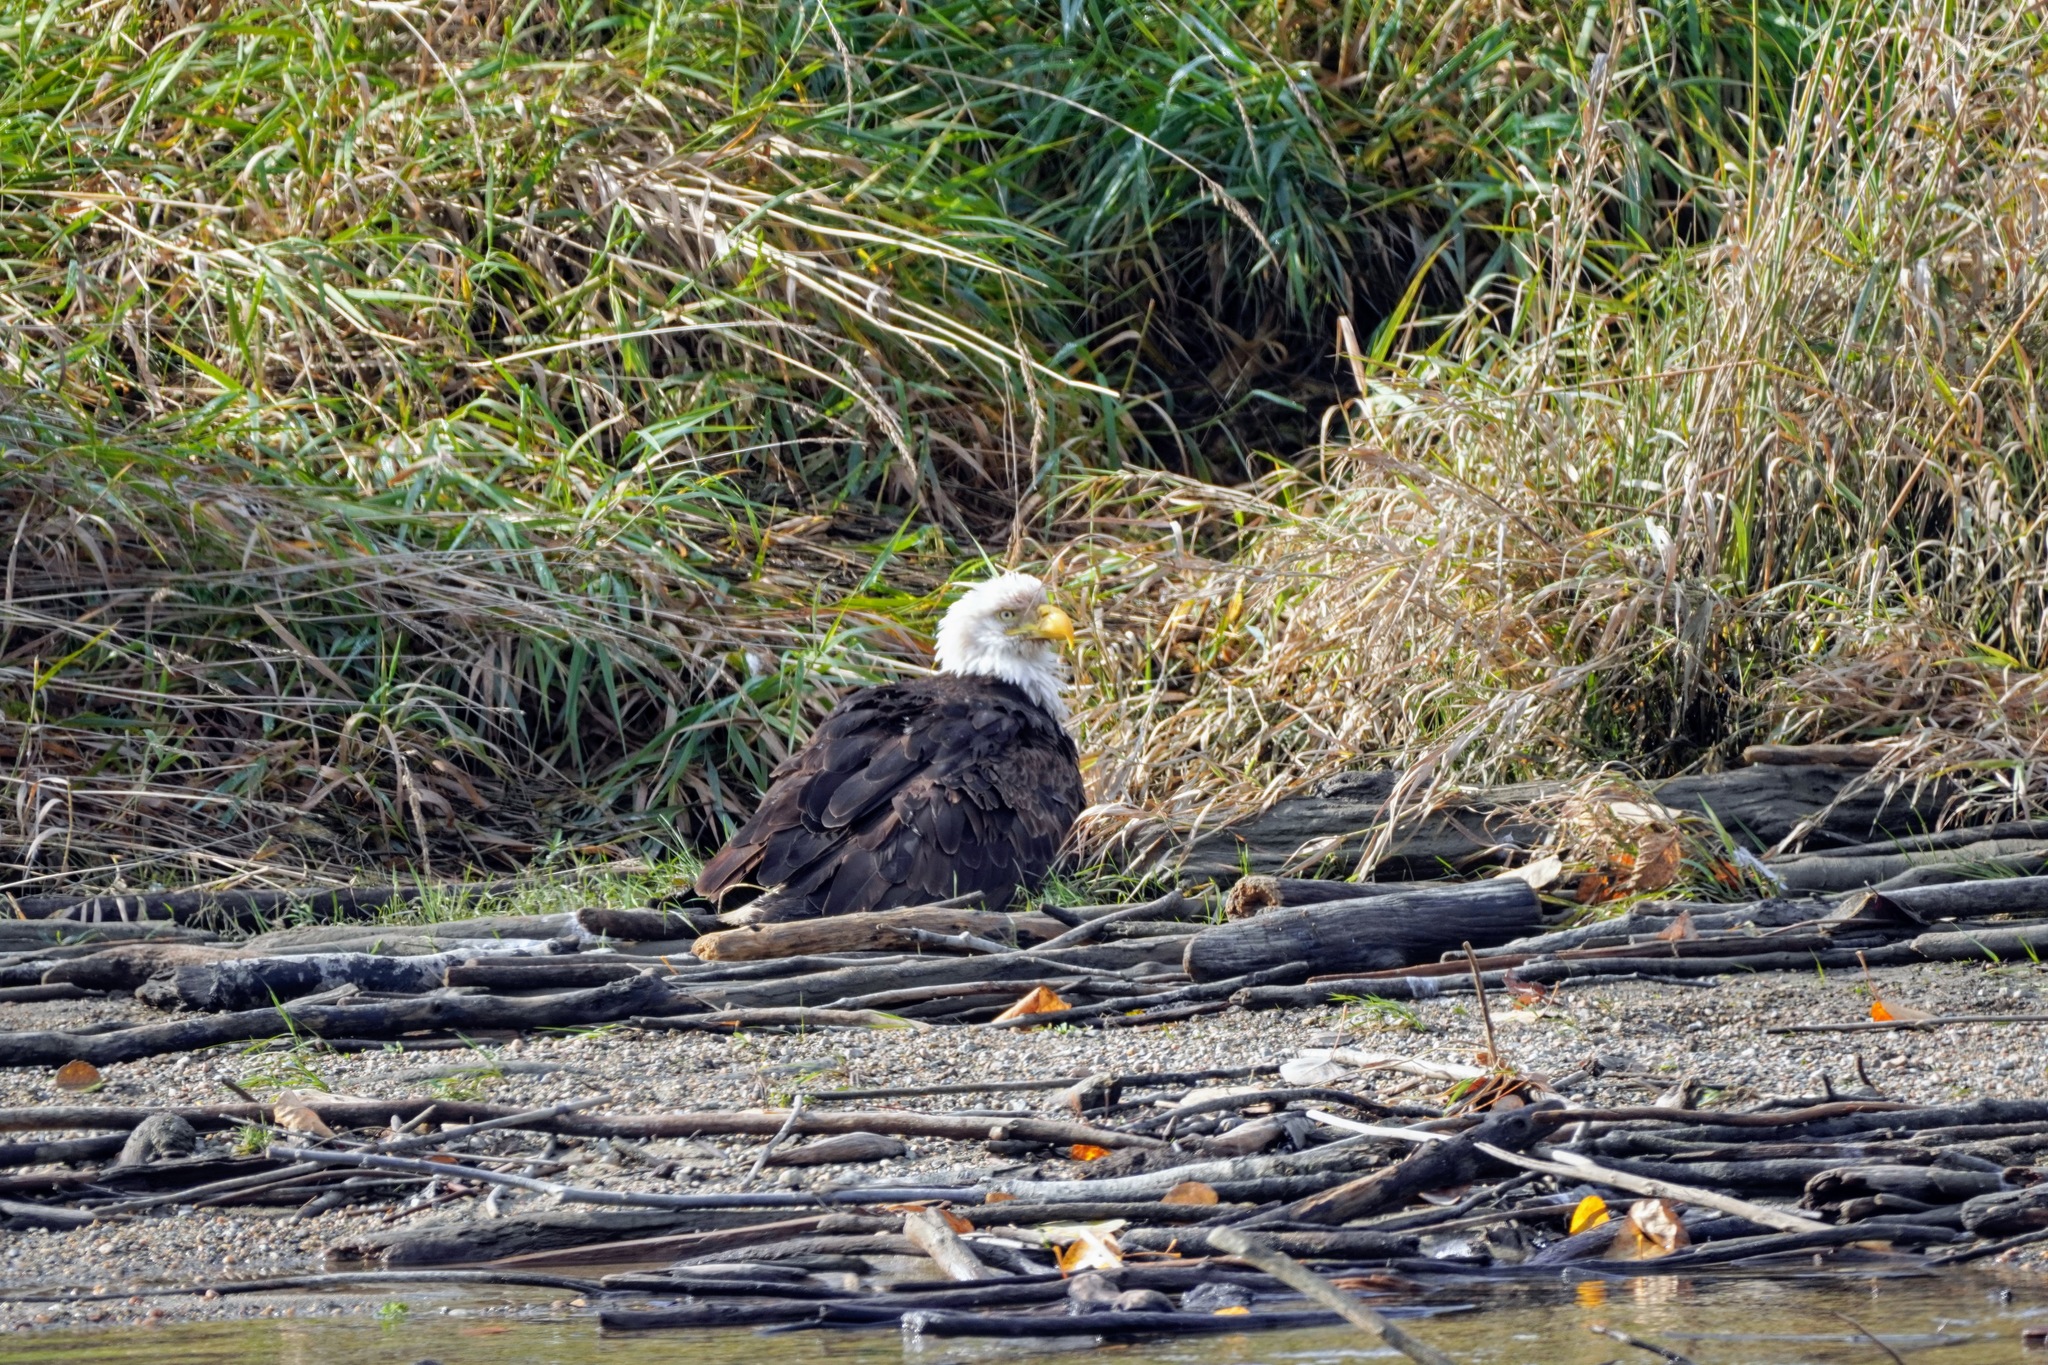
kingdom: Animalia
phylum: Chordata
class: Aves
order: Accipitriformes
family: Accipitridae
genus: Haliaeetus
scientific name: Haliaeetus leucocephalus
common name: Bald eagle
